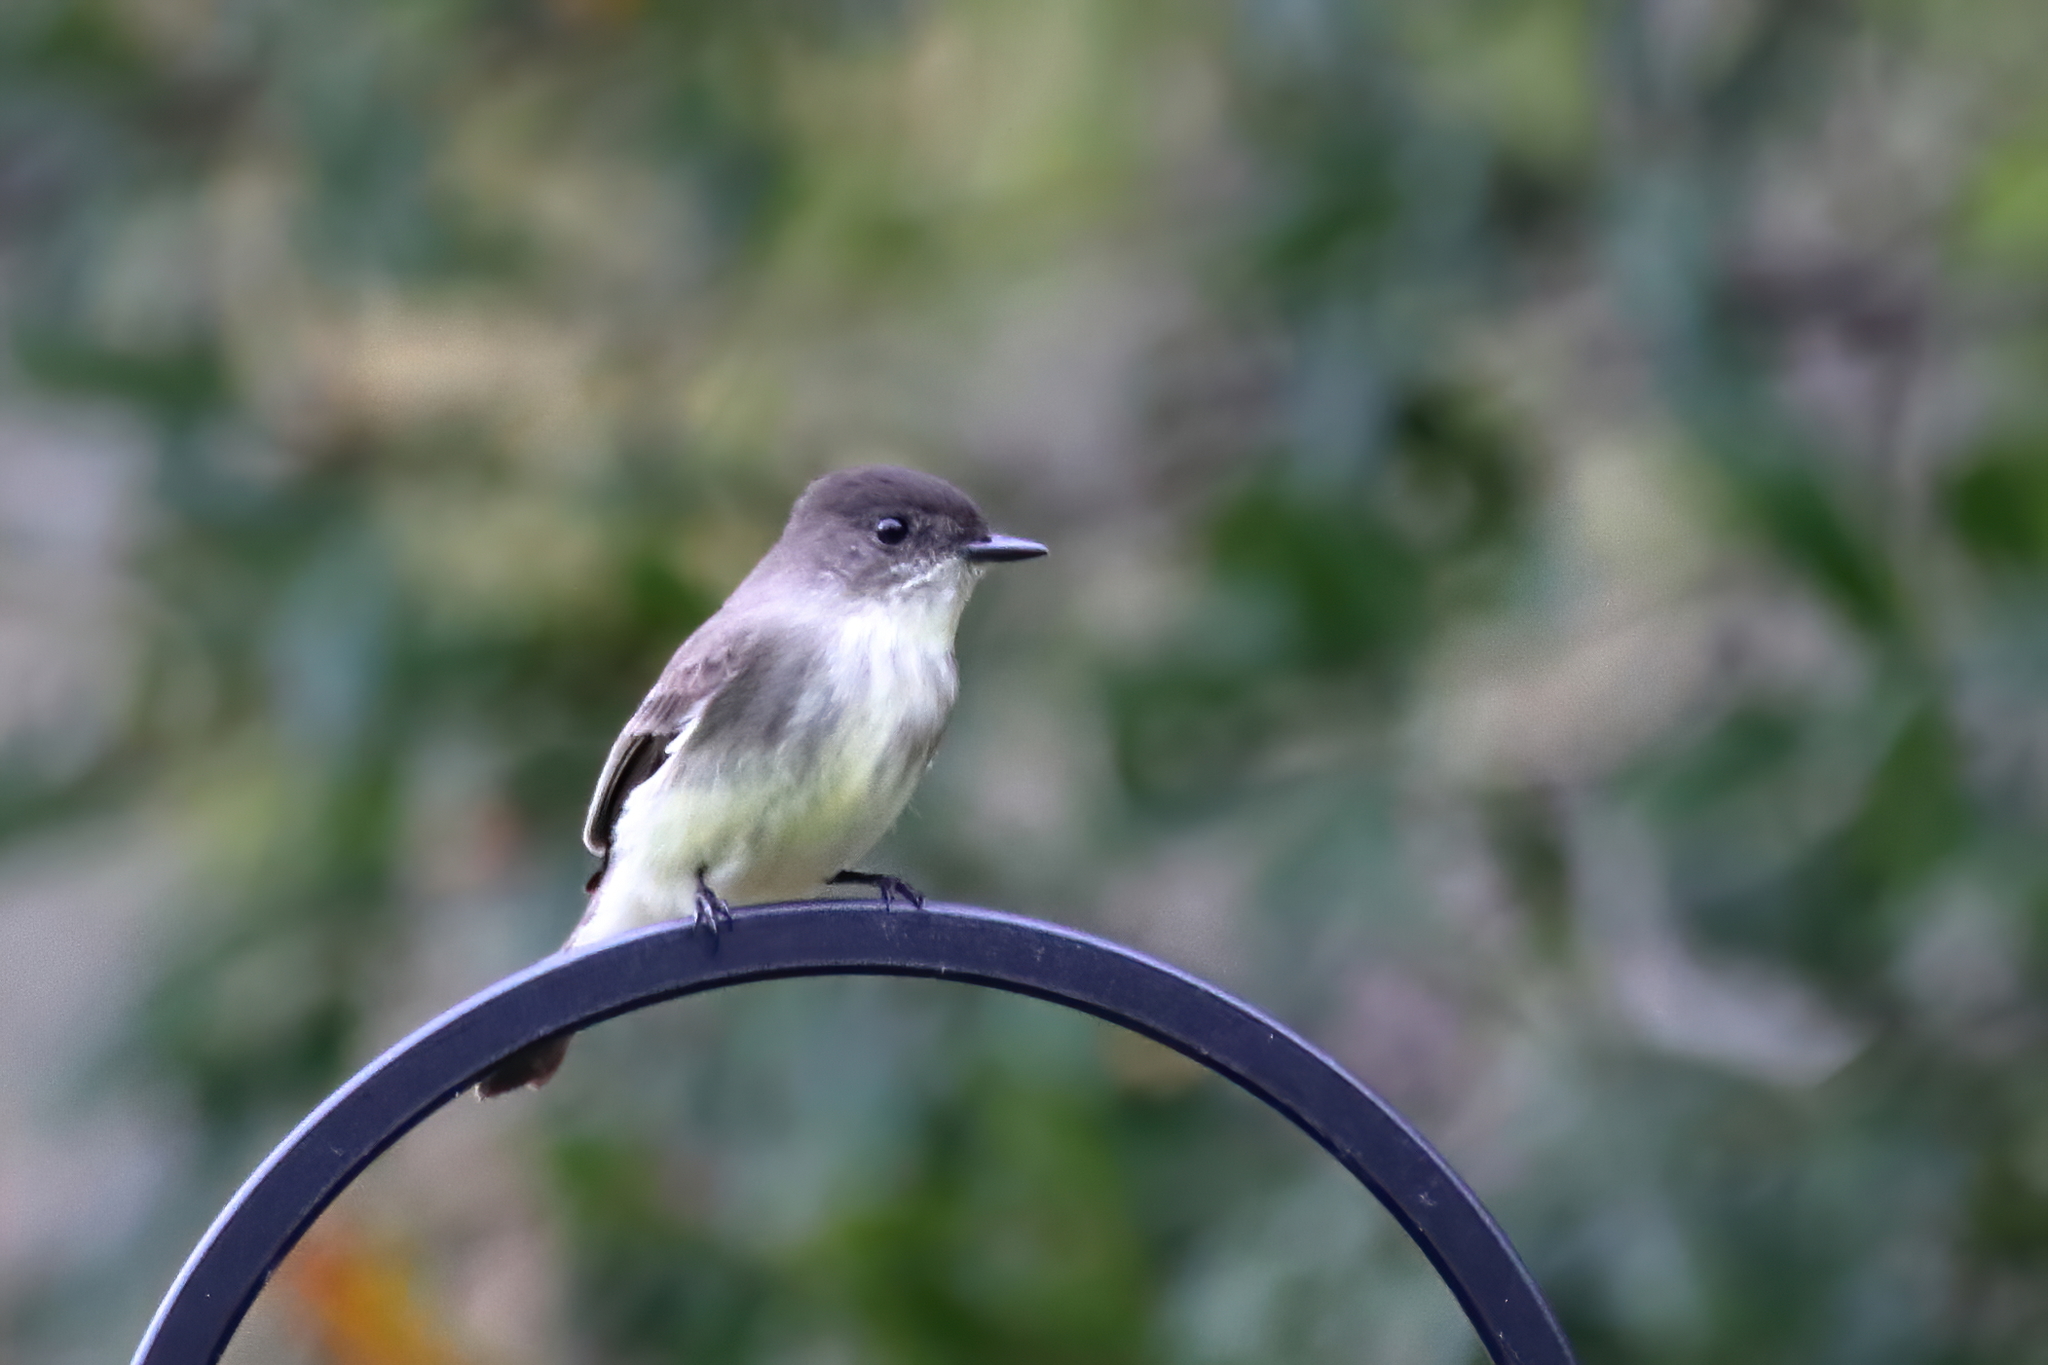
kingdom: Animalia
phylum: Chordata
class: Aves
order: Passeriformes
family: Tyrannidae
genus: Sayornis
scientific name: Sayornis phoebe
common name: Eastern phoebe
